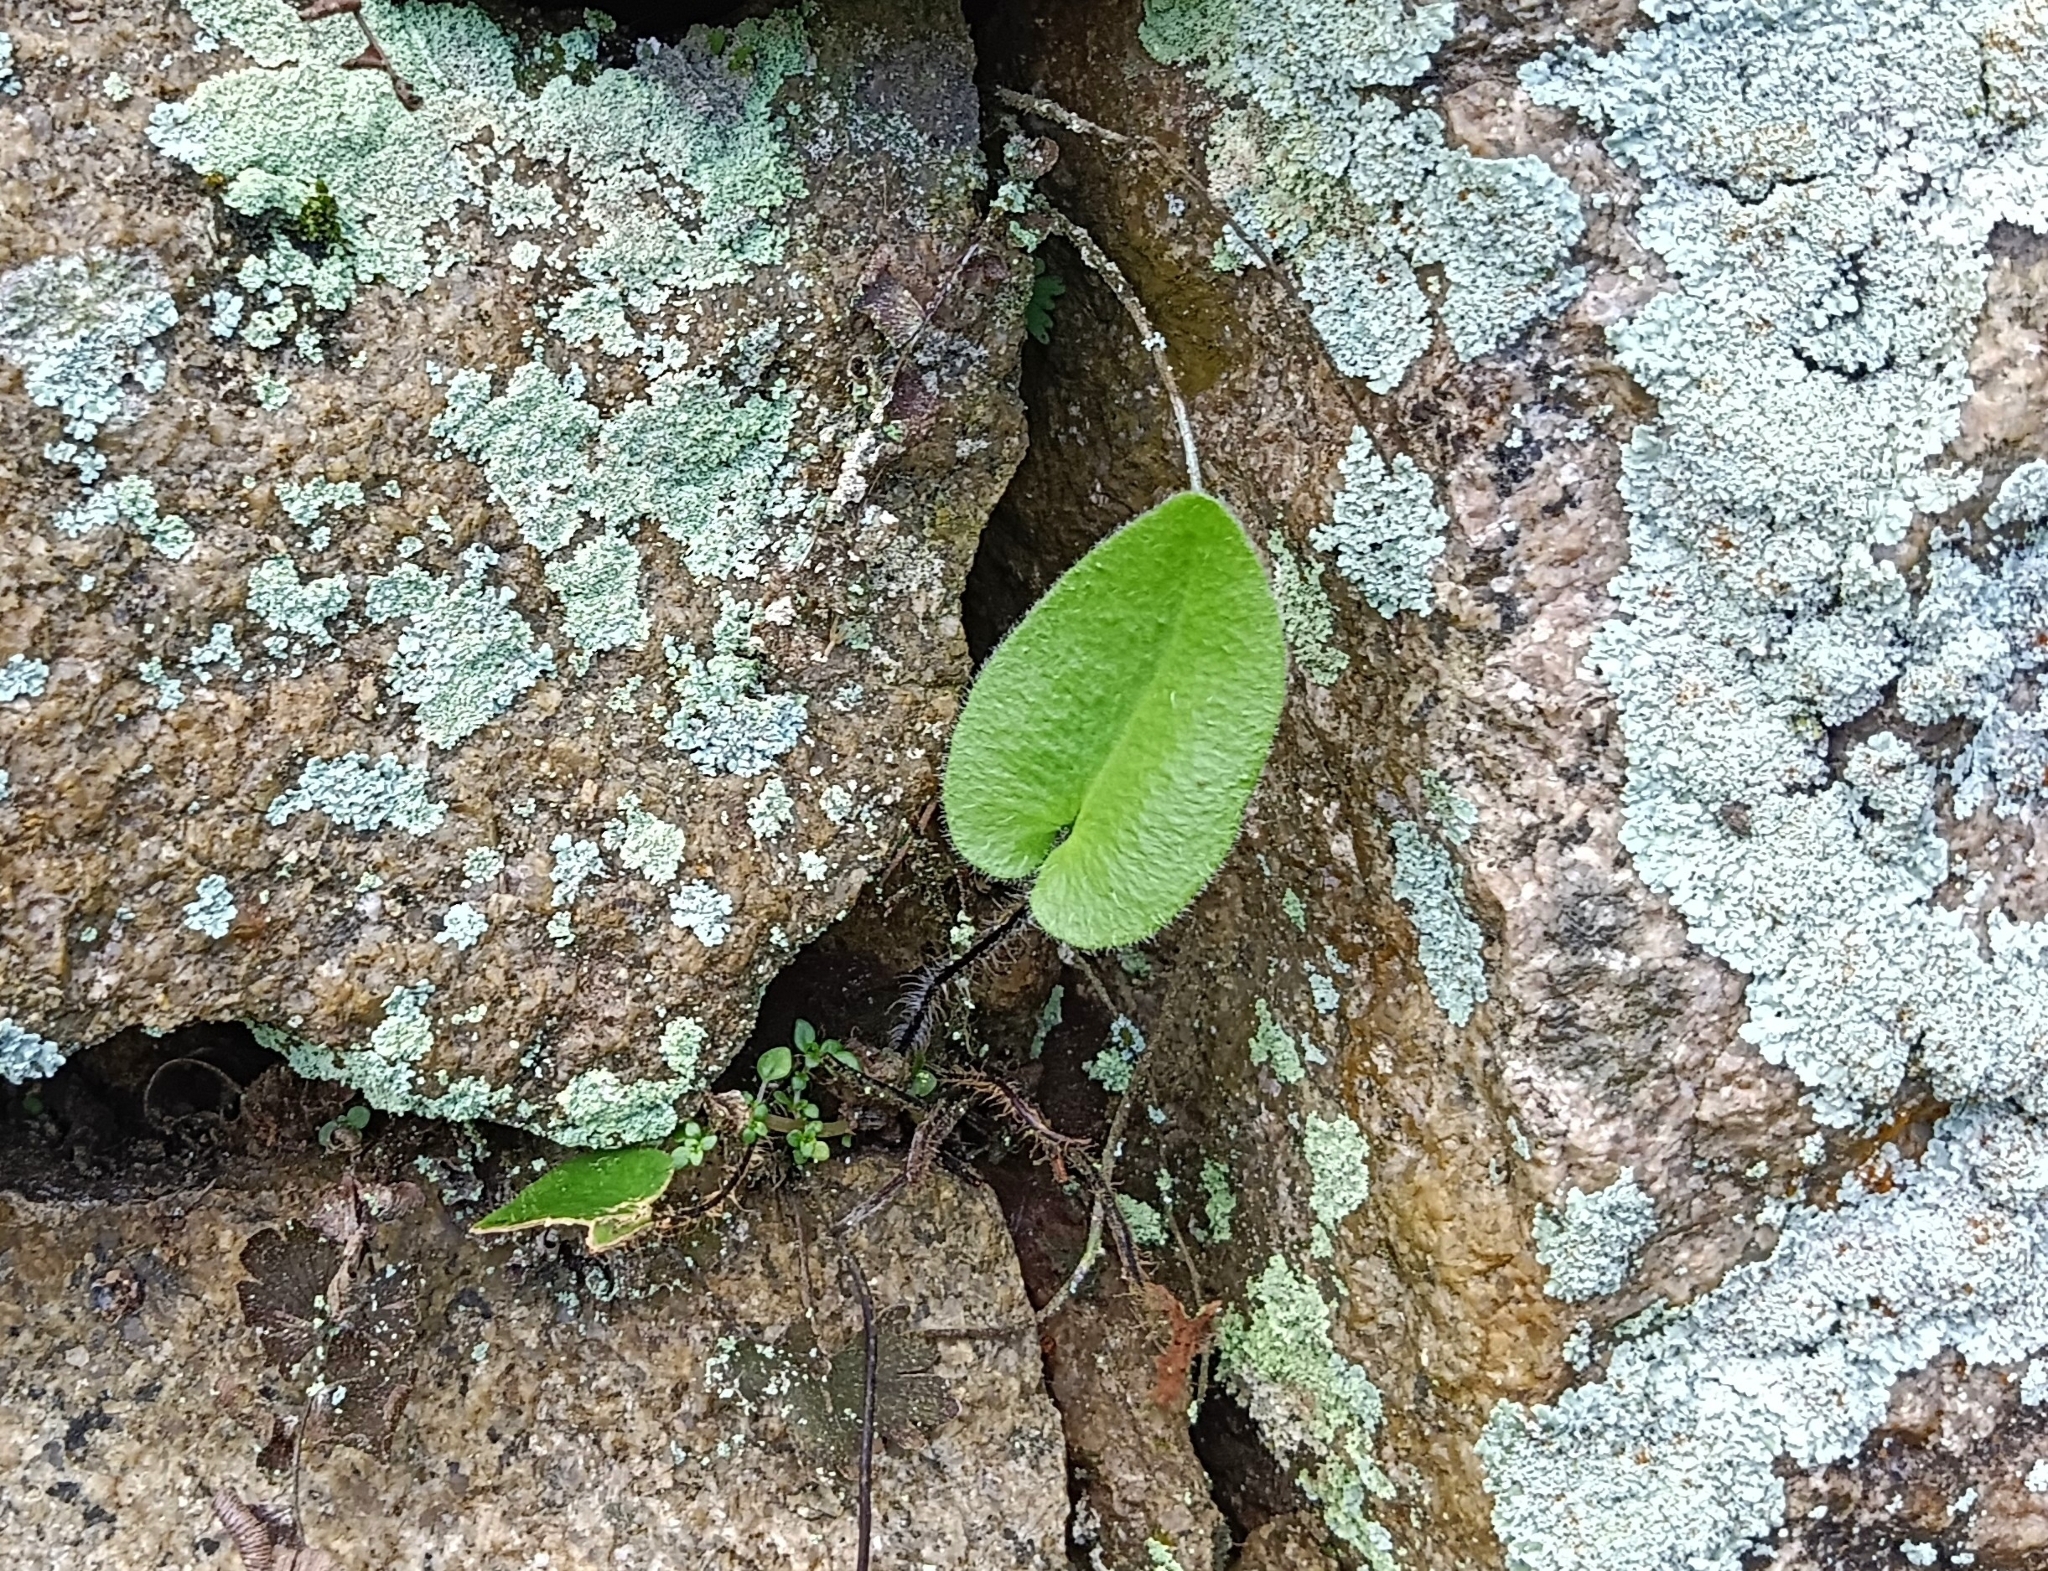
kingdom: Plantae
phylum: Tracheophyta
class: Polypodiopsida
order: Polypodiales
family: Pteridaceae
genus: Mickelopteris
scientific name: Mickelopteris cordata
